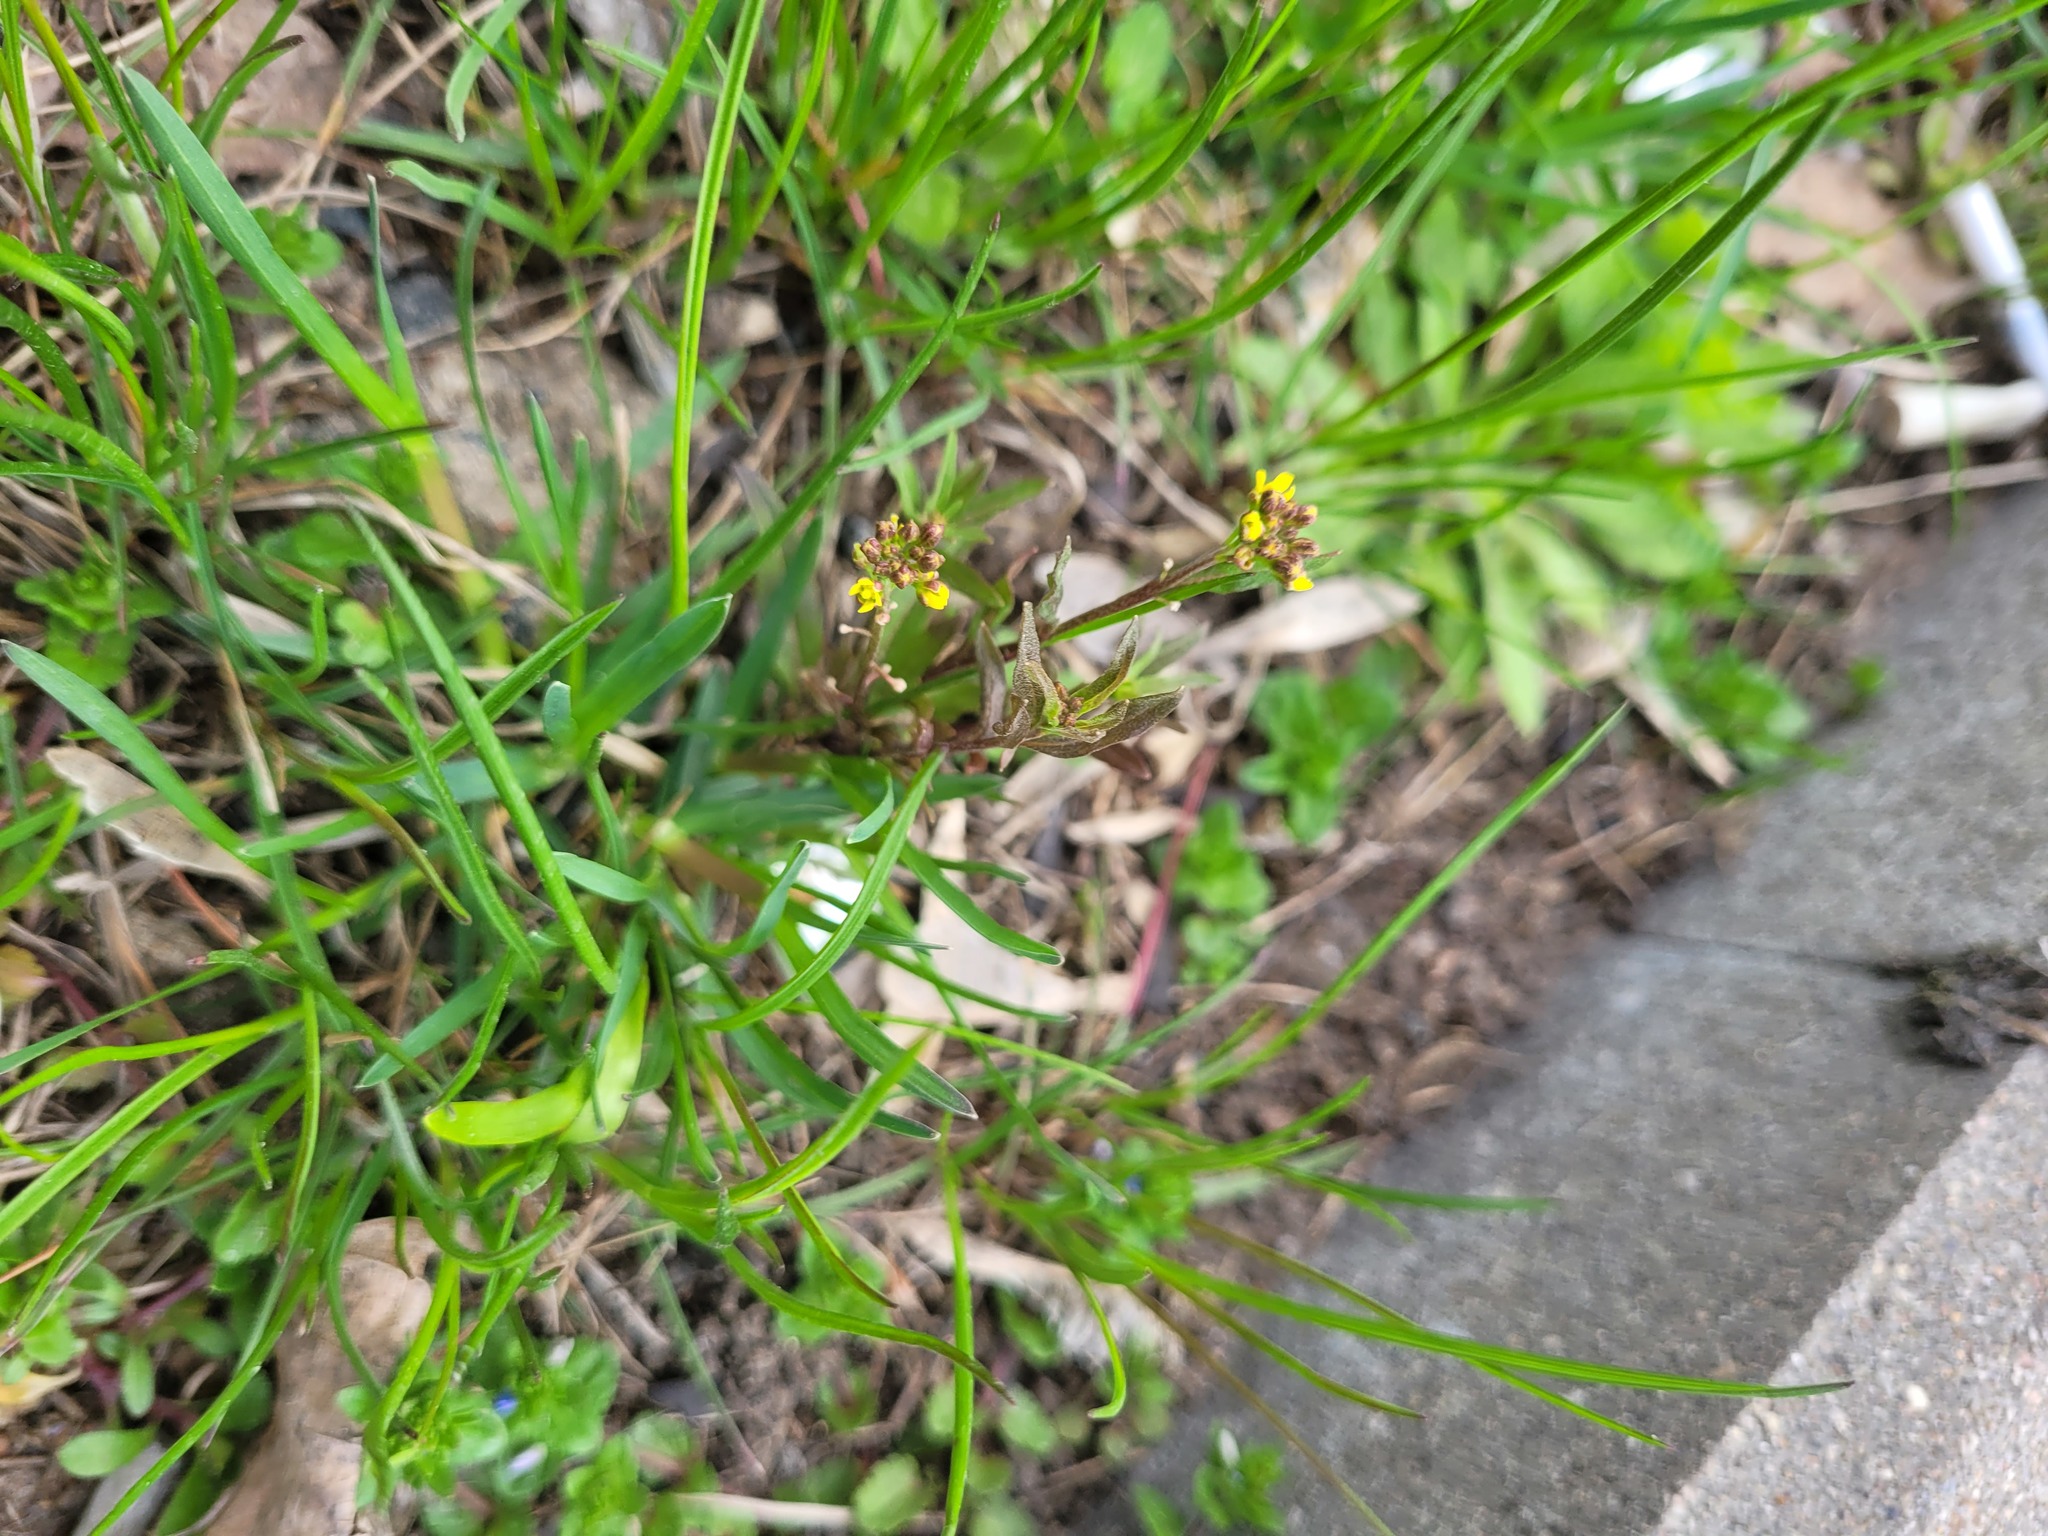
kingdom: Plantae
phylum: Tracheophyta
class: Magnoliopsida
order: Brassicales
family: Brassicaceae
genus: Erysimum
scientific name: Erysimum cheiranthoides
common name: Treacle mustard
